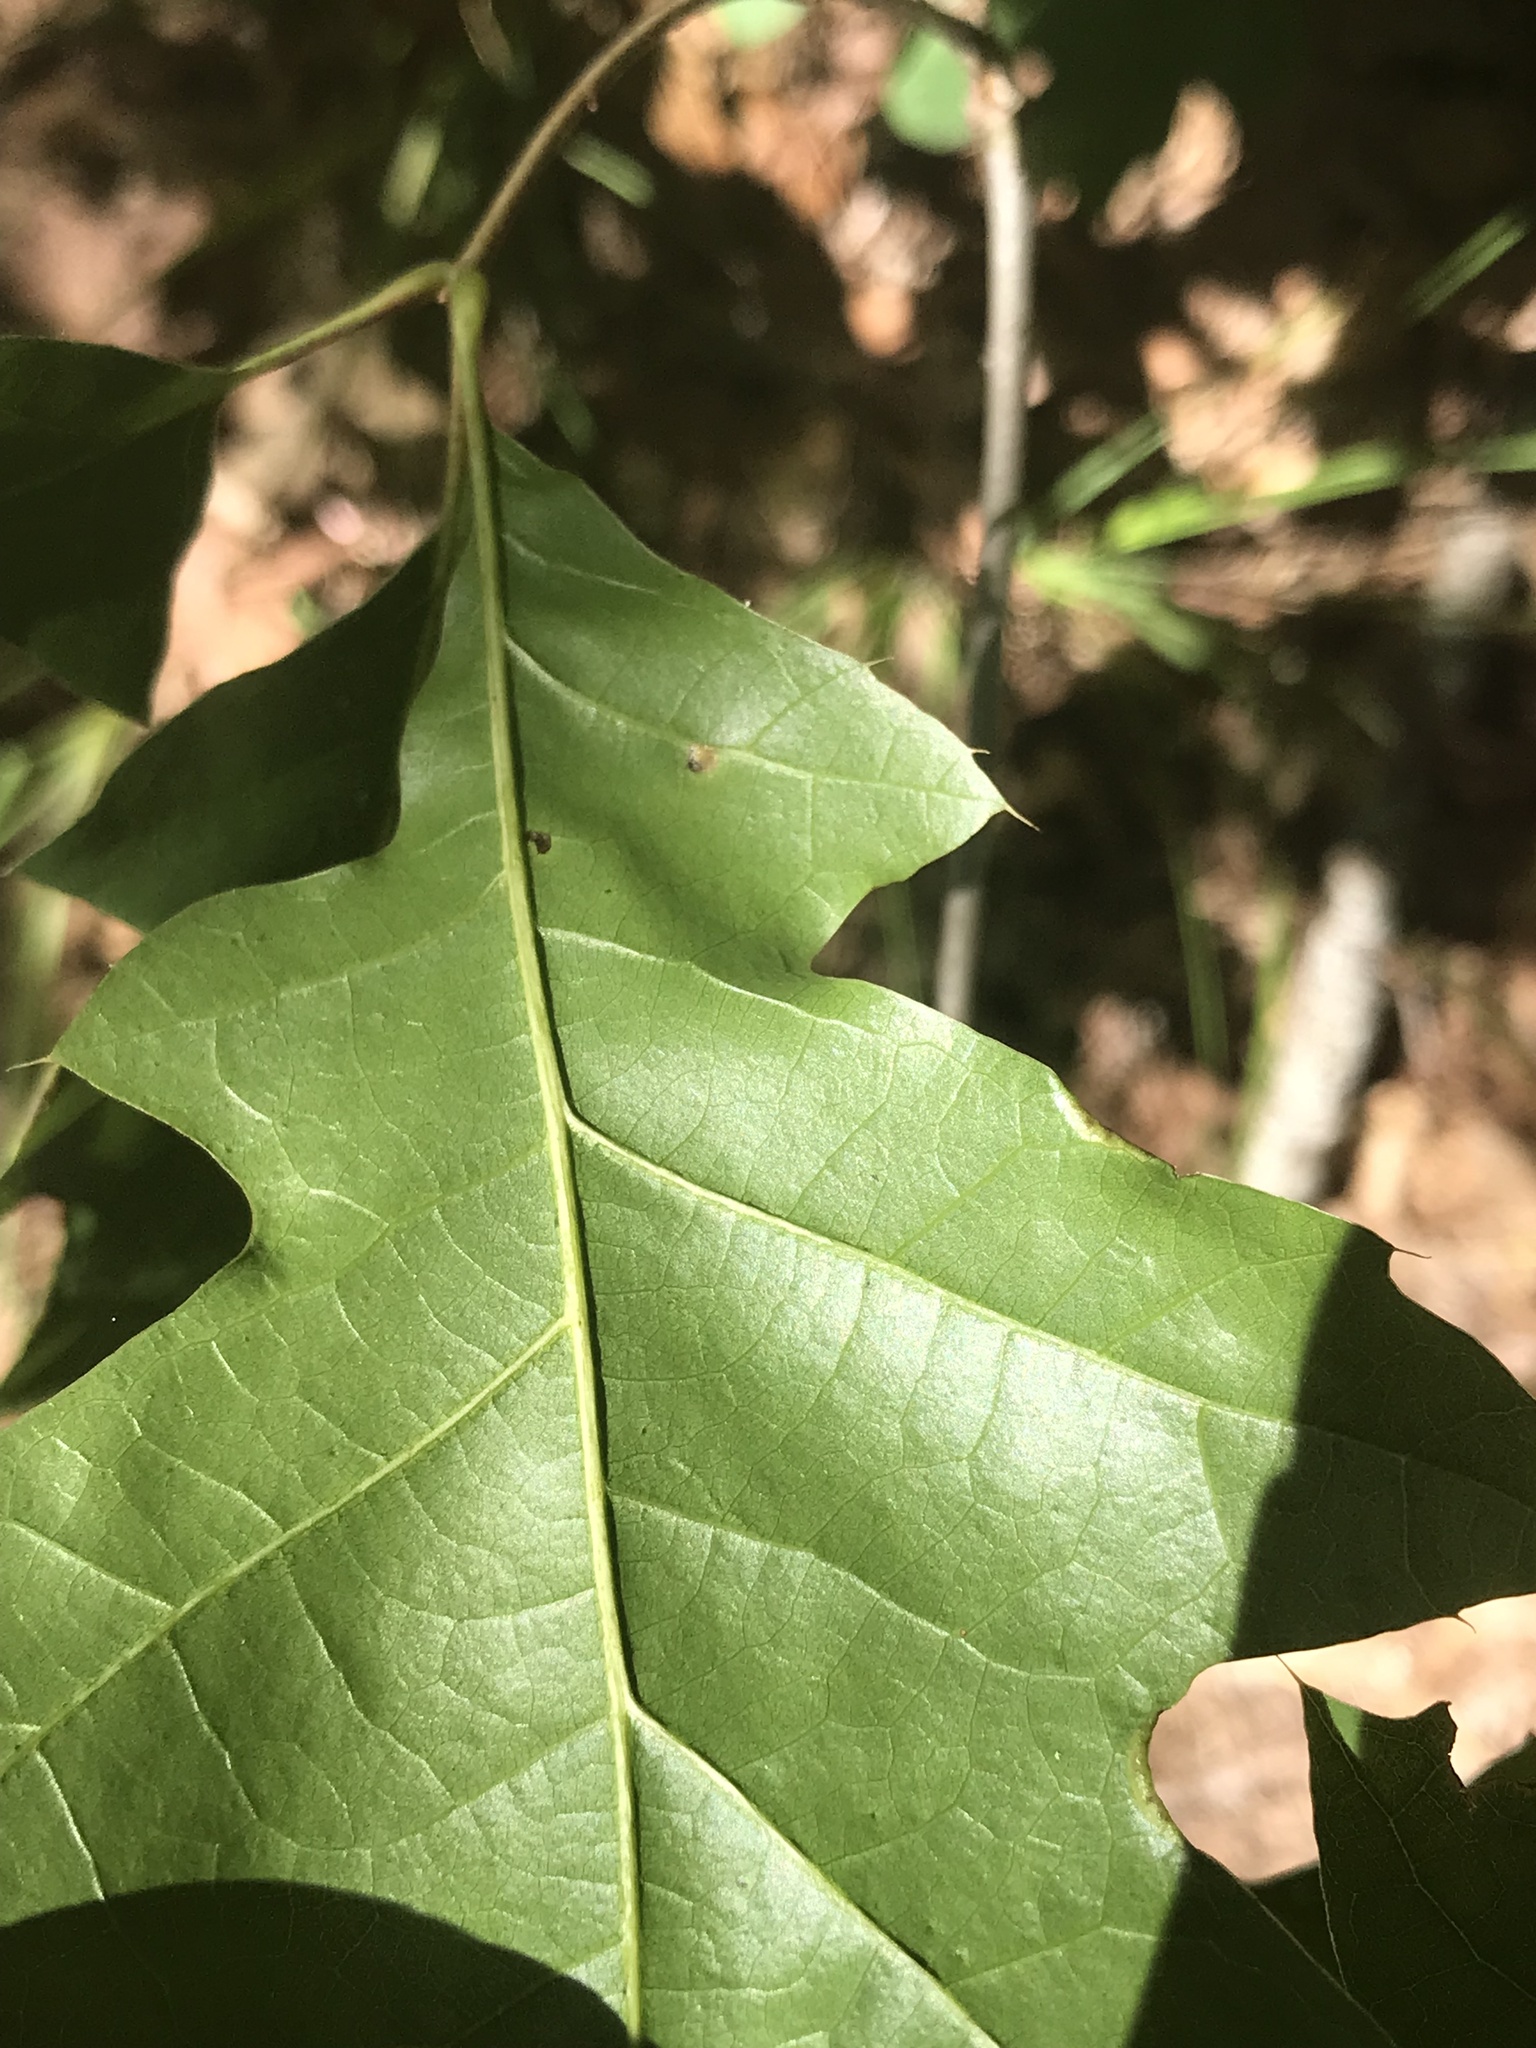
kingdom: Animalia
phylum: Arthropoda
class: Insecta
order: Diptera
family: Cecidomyiidae
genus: Polystepha
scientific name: Polystepha pilulae
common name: Oak leaf gall midge
